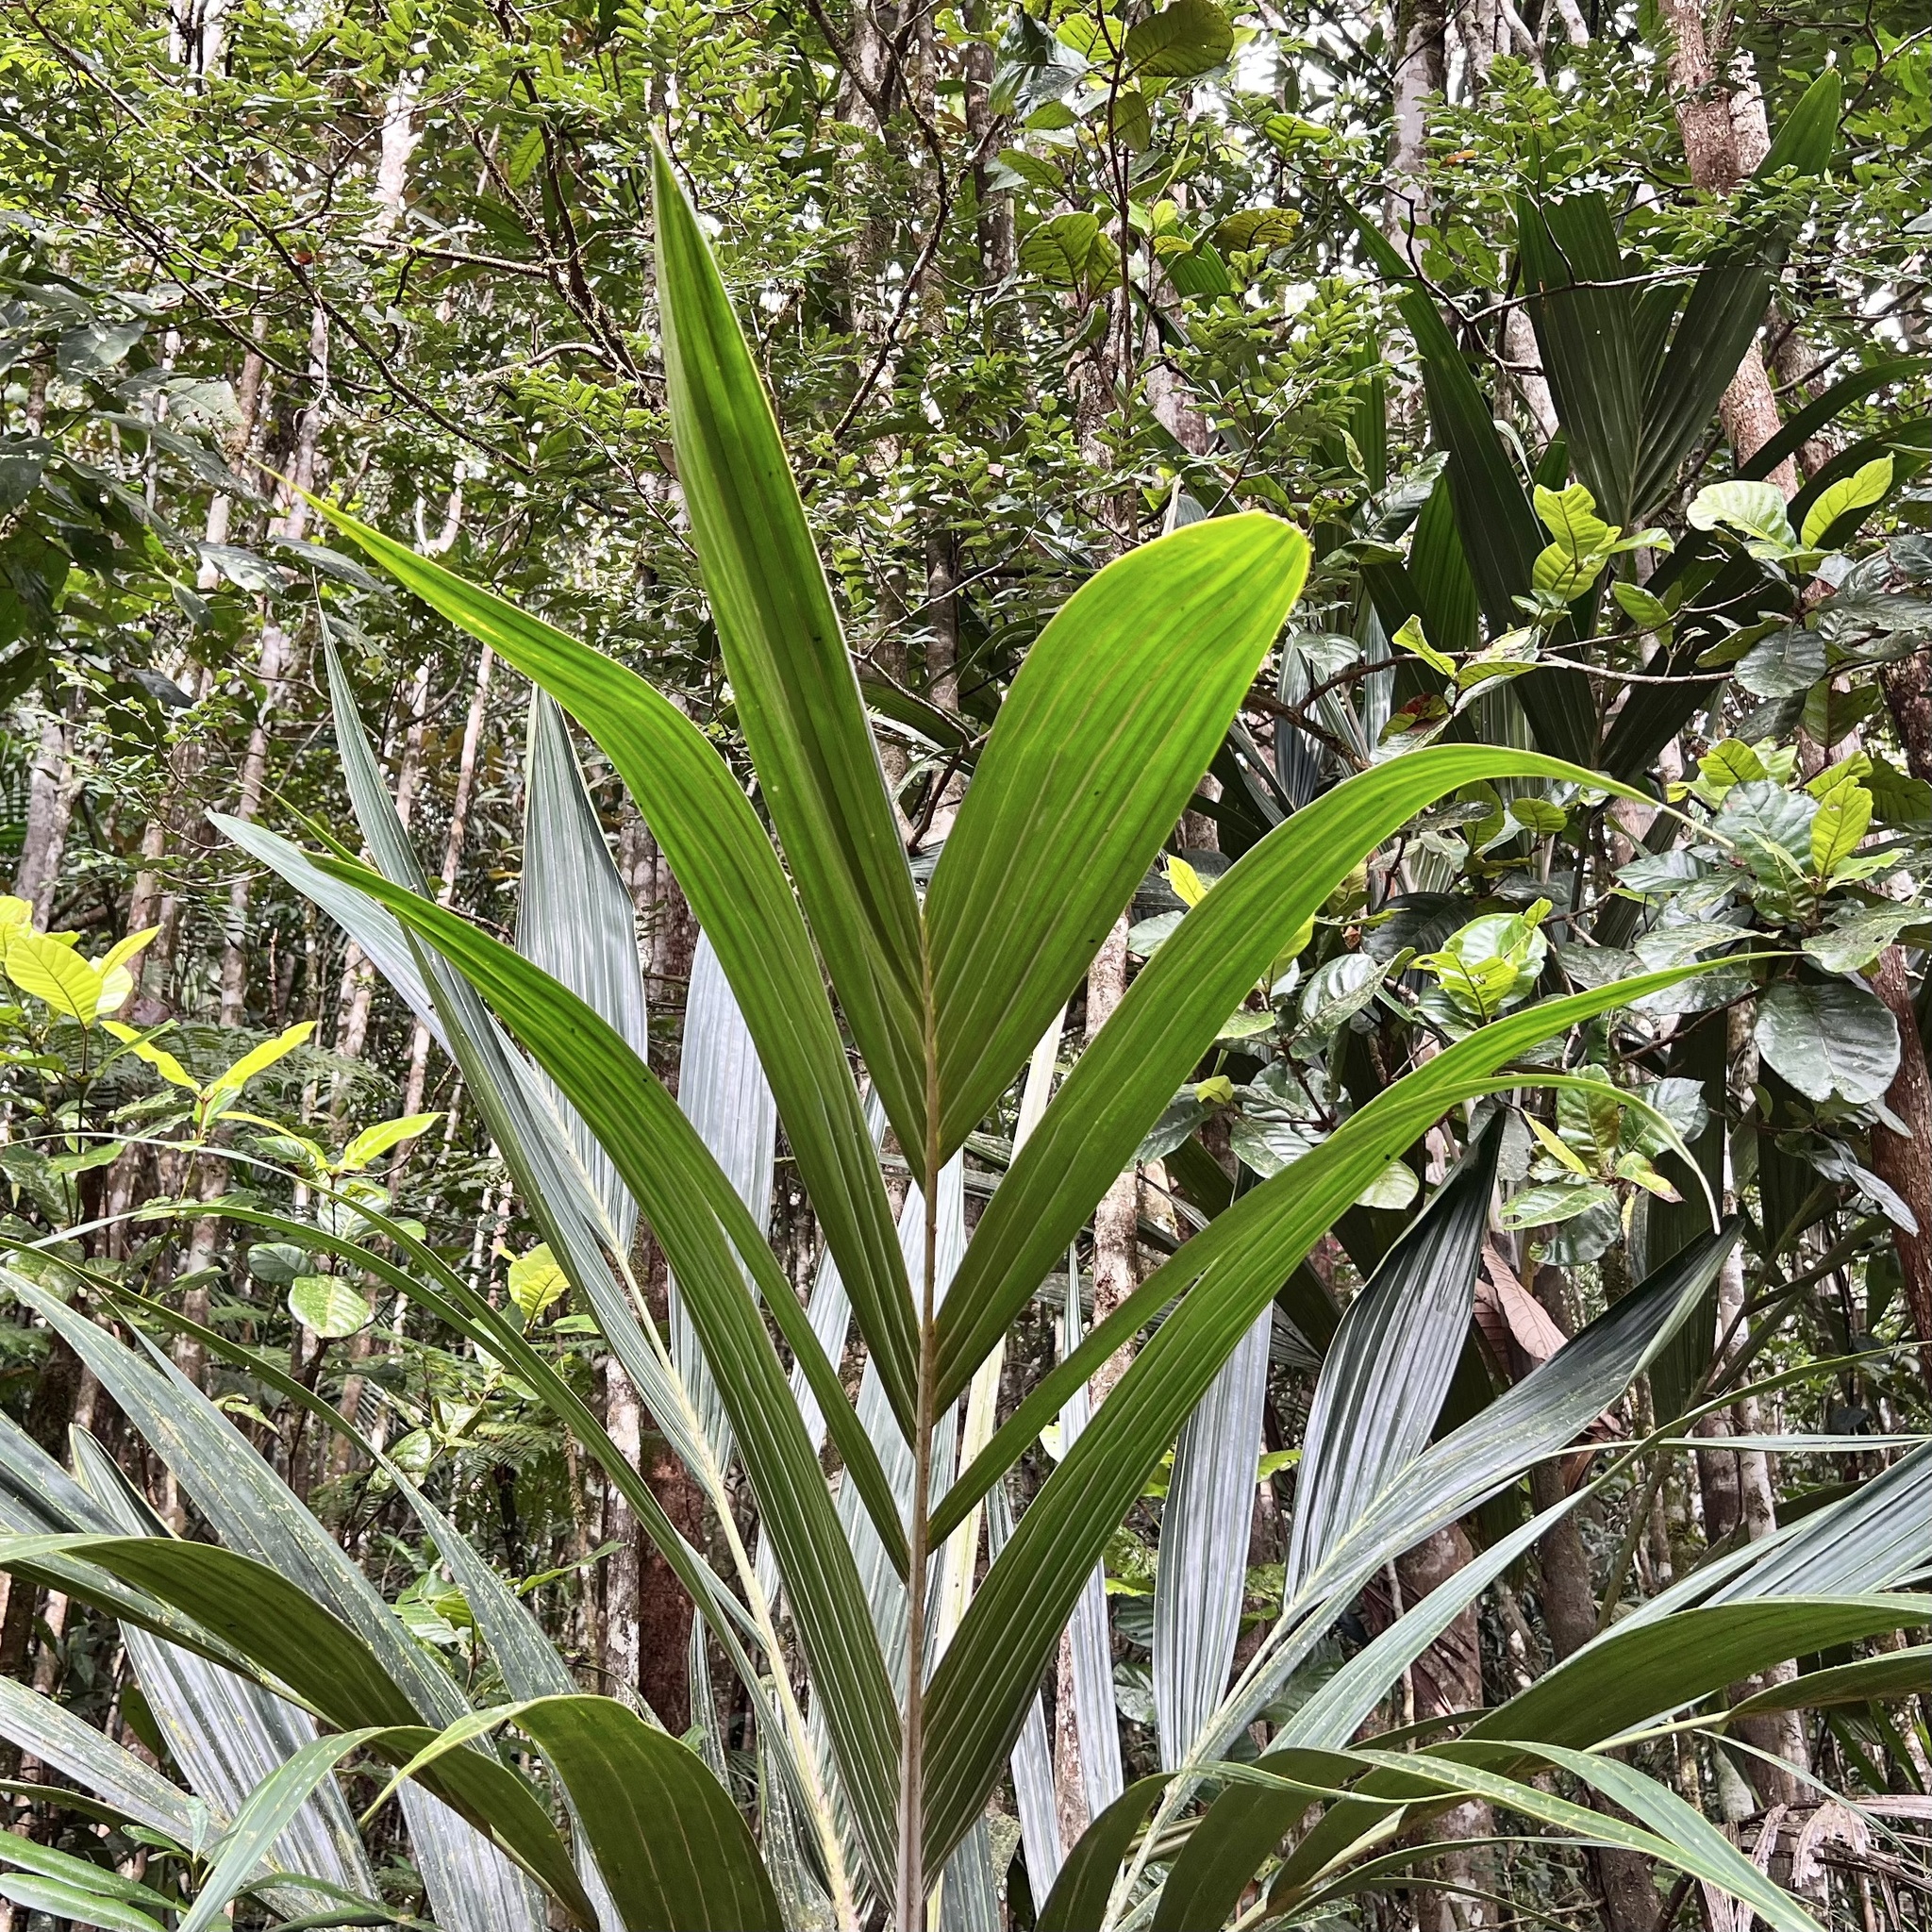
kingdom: Plantae
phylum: Tracheophyta
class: Liliopsida
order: Arecales
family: Arecaceae
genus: Basselinia
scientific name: Basselinia pancheri
